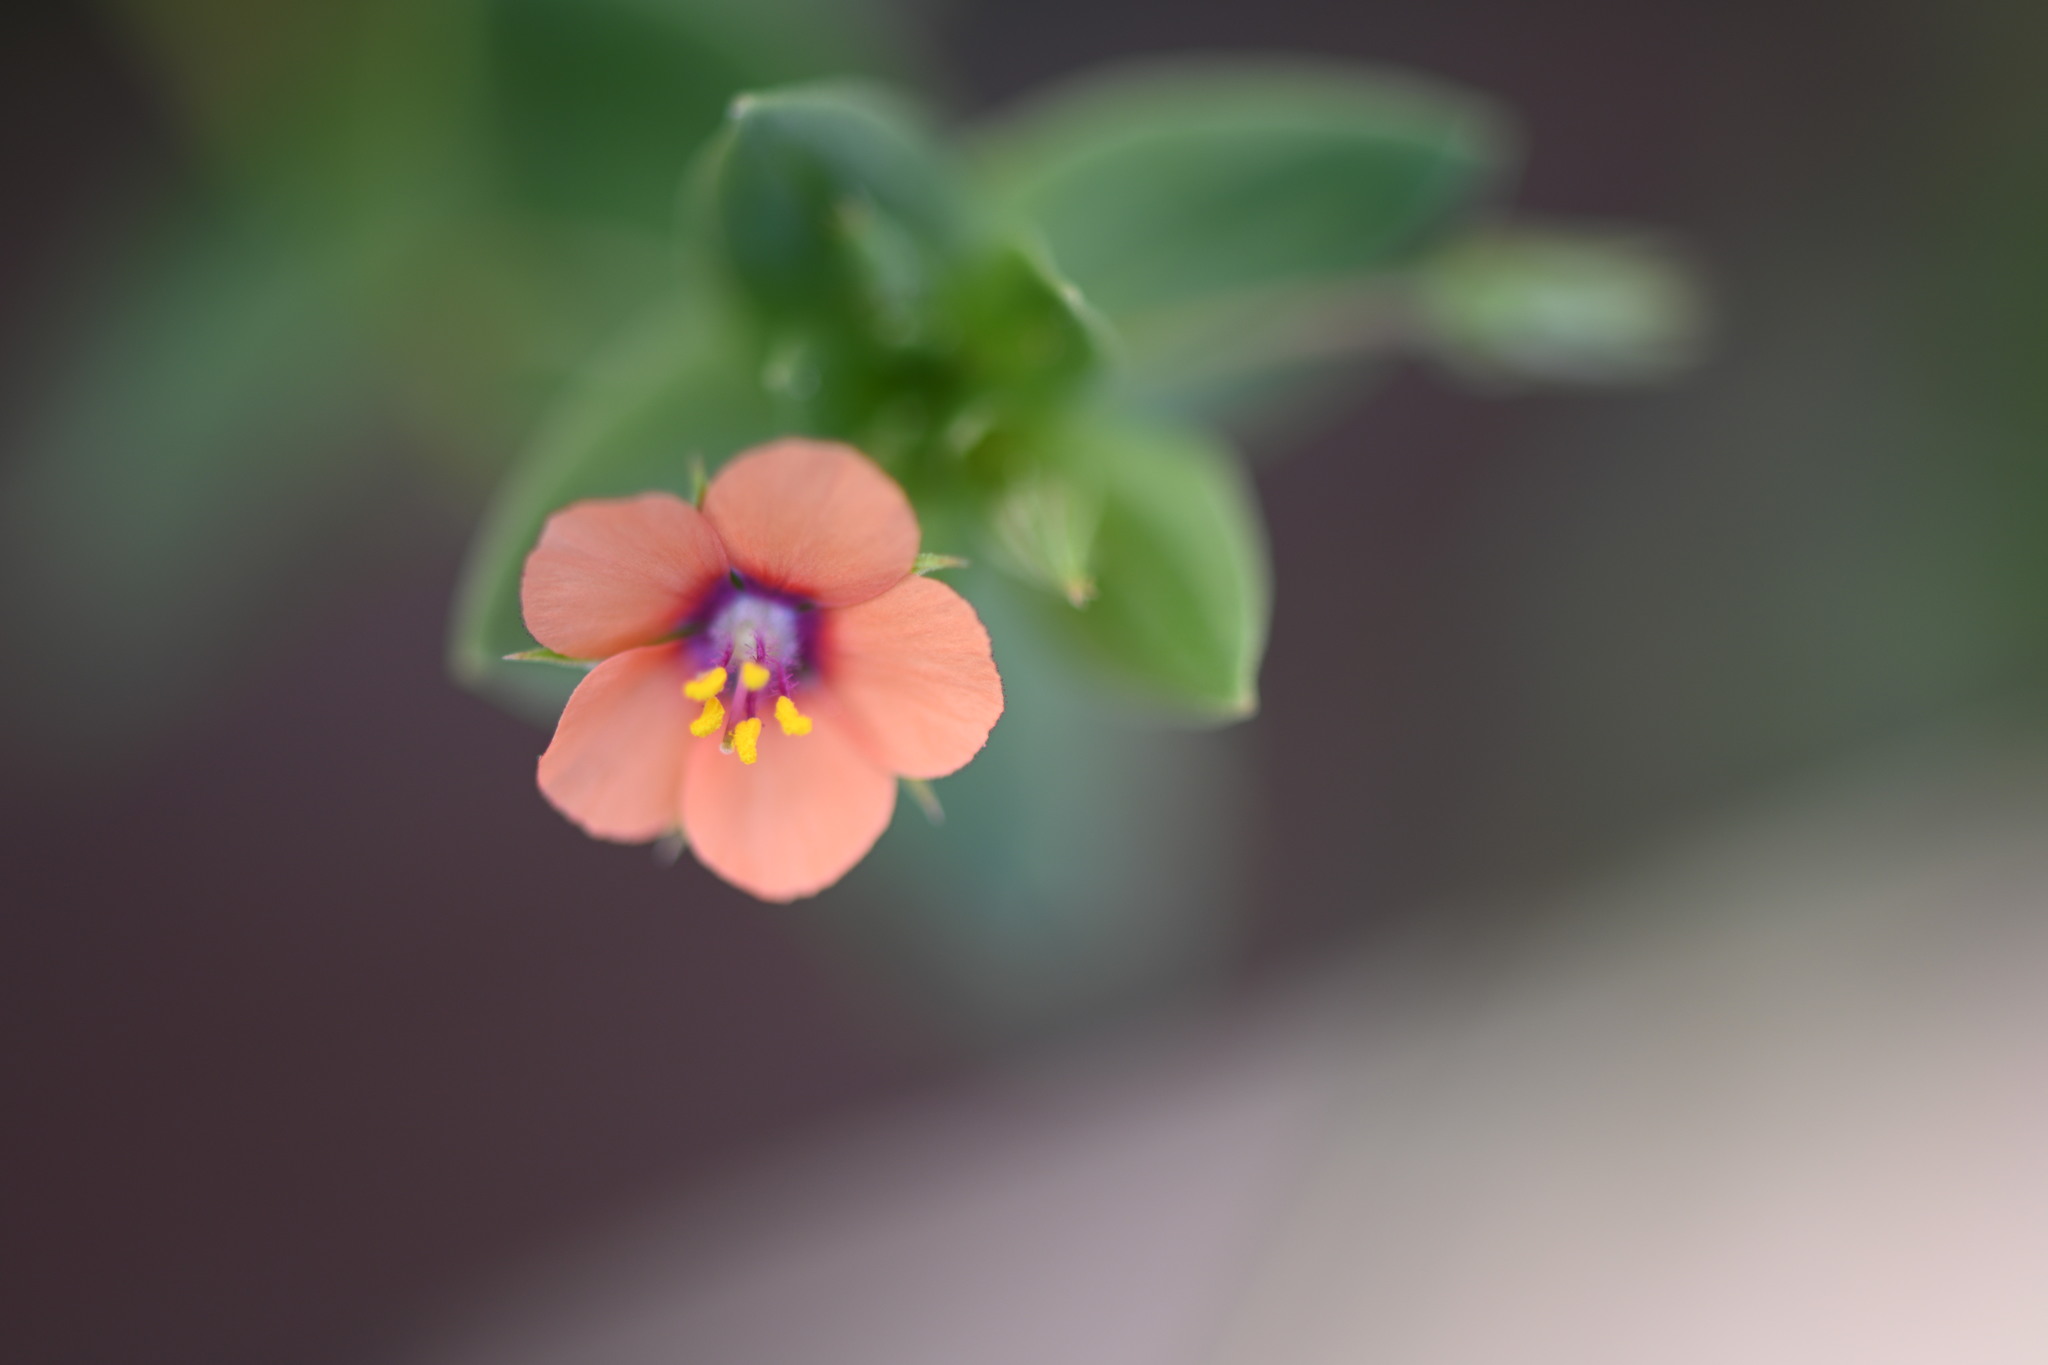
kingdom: Plantae
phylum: Tracheophyta
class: Magnoliopsida
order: Ericales
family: Primulaceae
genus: Lysimachia
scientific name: Lysimachia arvensis
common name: Scarlet pimpernel
